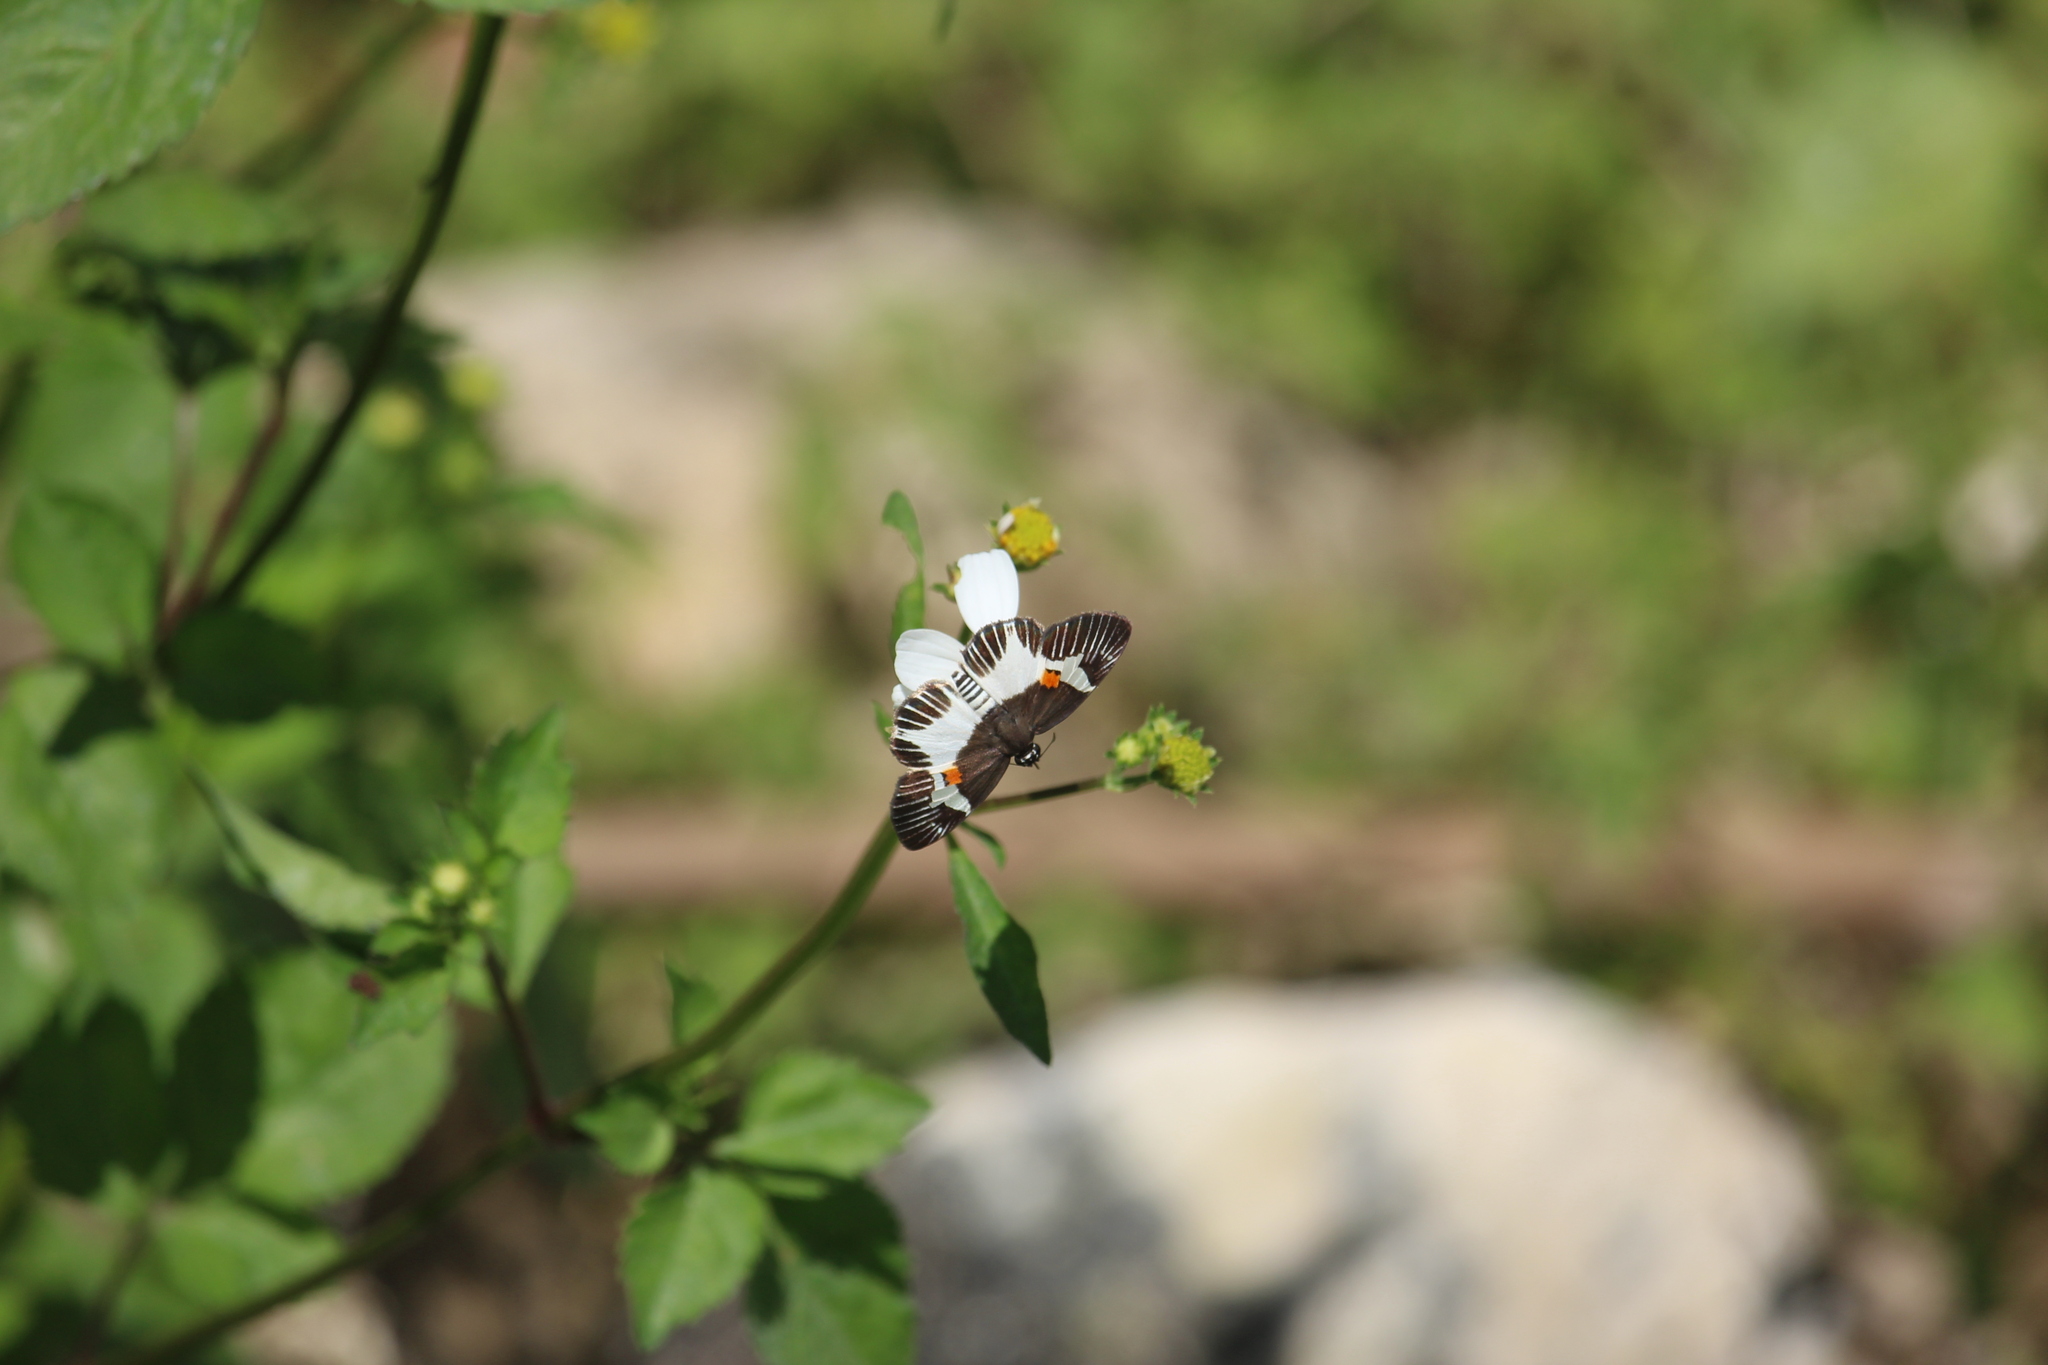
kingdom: Animalia
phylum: Arthropoda
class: Insecta
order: Lepidoptera
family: Hesperiidae
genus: Atarnes
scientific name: Atarnes sallei
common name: Orange-spotted skipper
